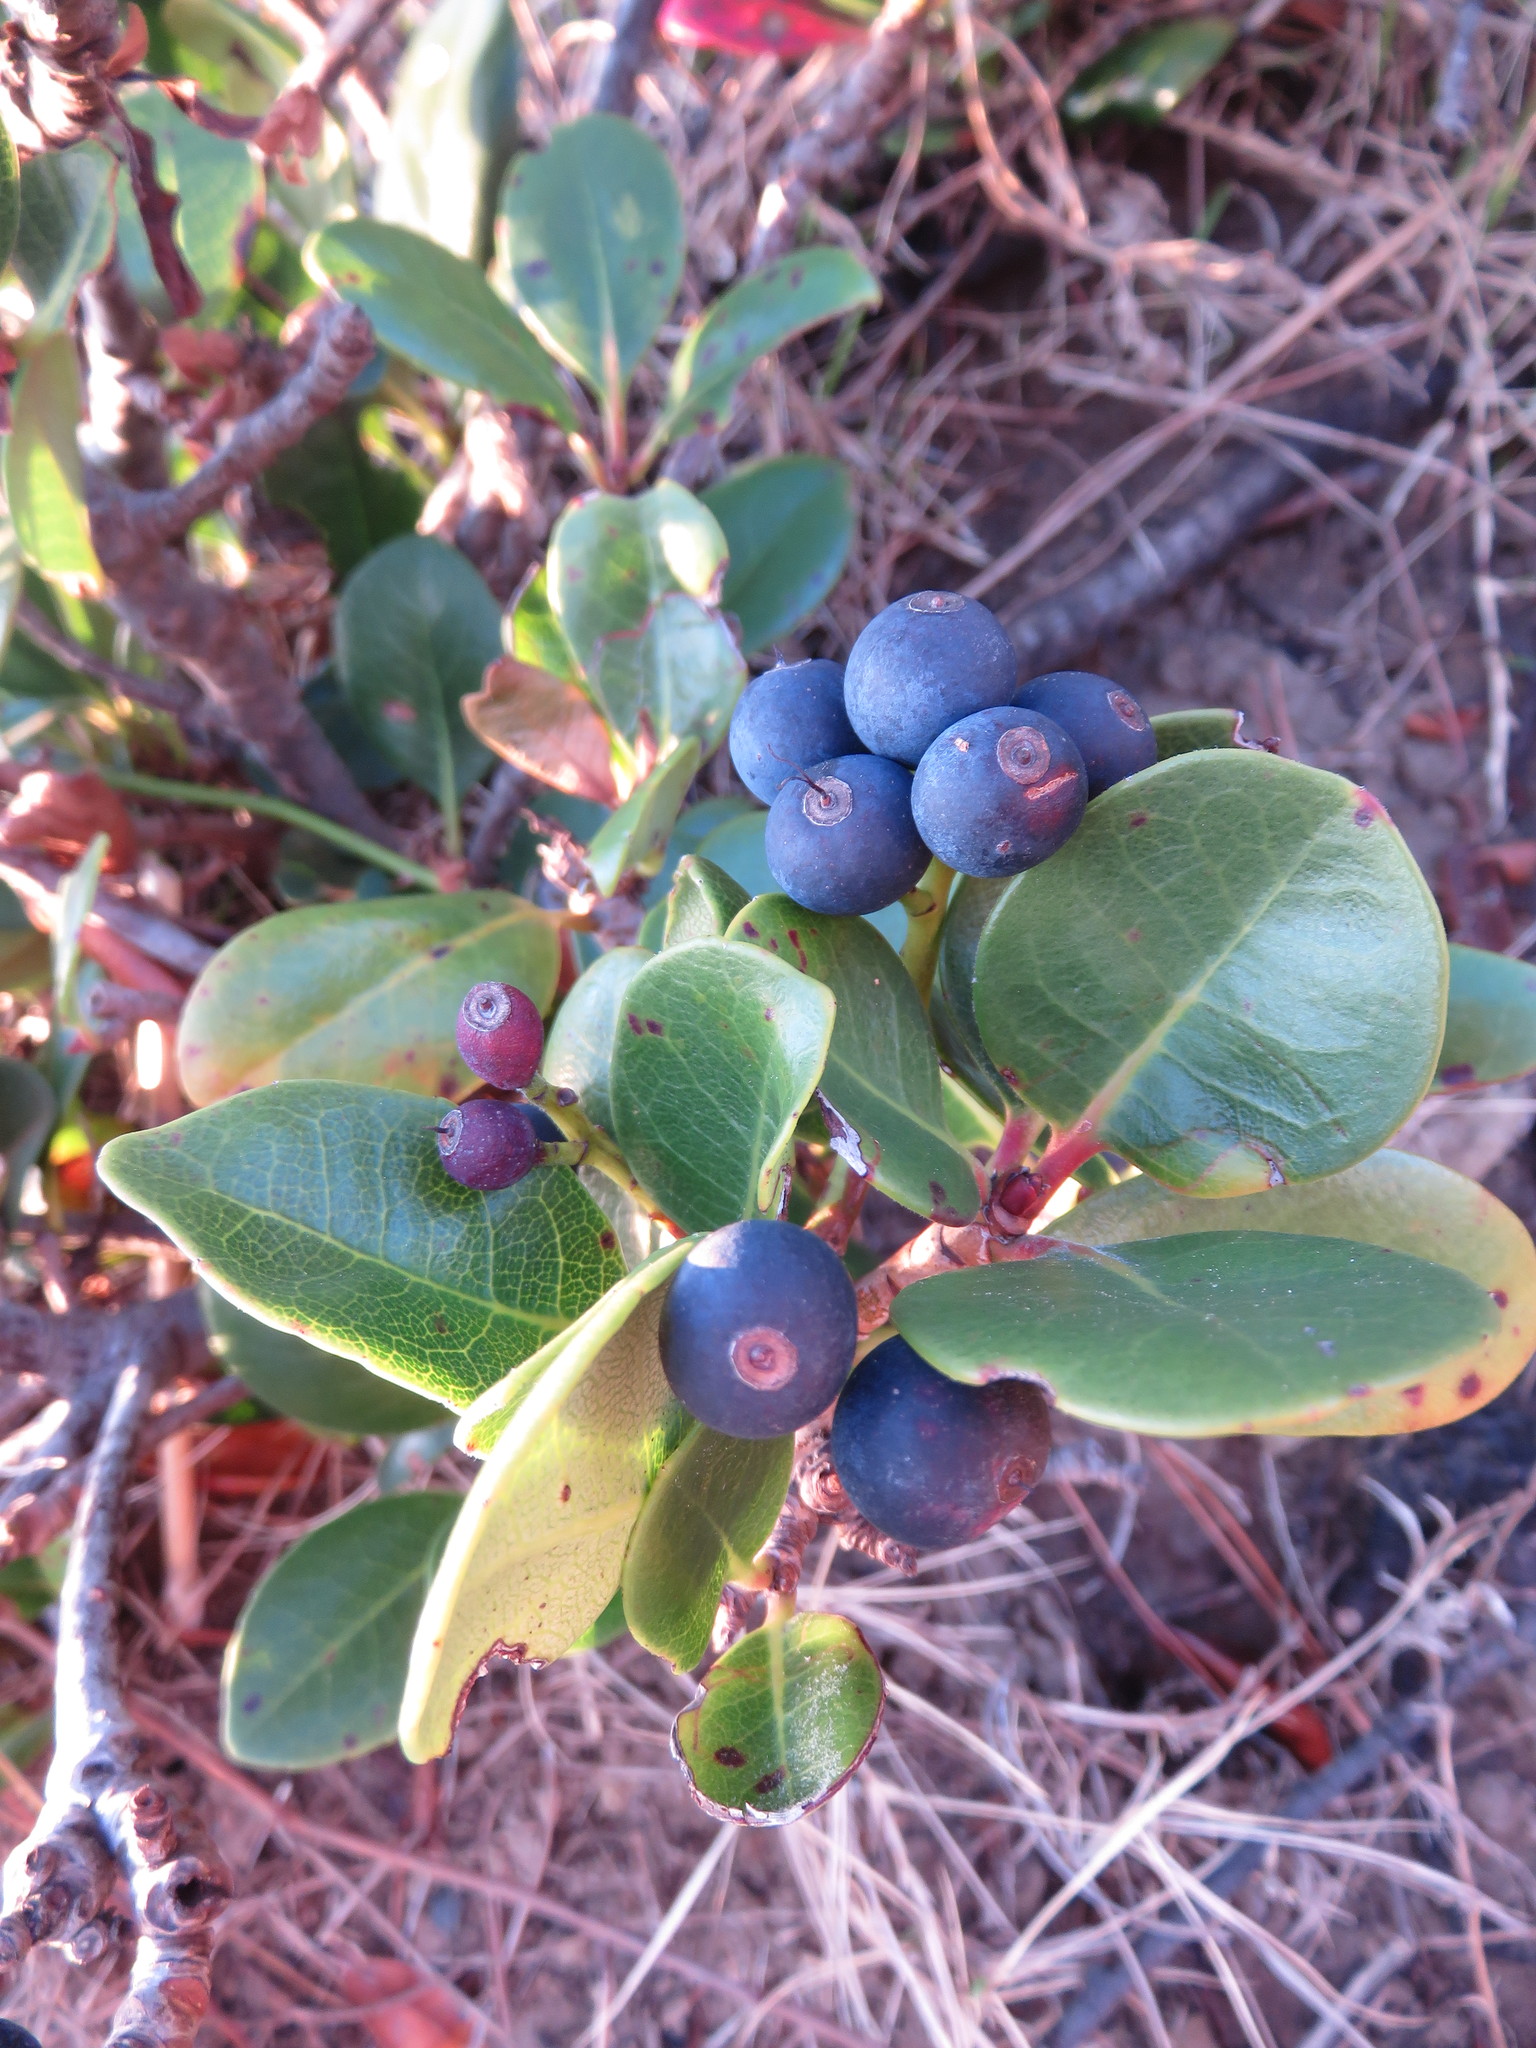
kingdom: Plantae
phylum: Tracheophyta
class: Magnoliopsida
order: Rosales
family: Rosaceae
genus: Rhaphiolepis
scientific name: Rhaphiolepis indica
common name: India-hawthorn
